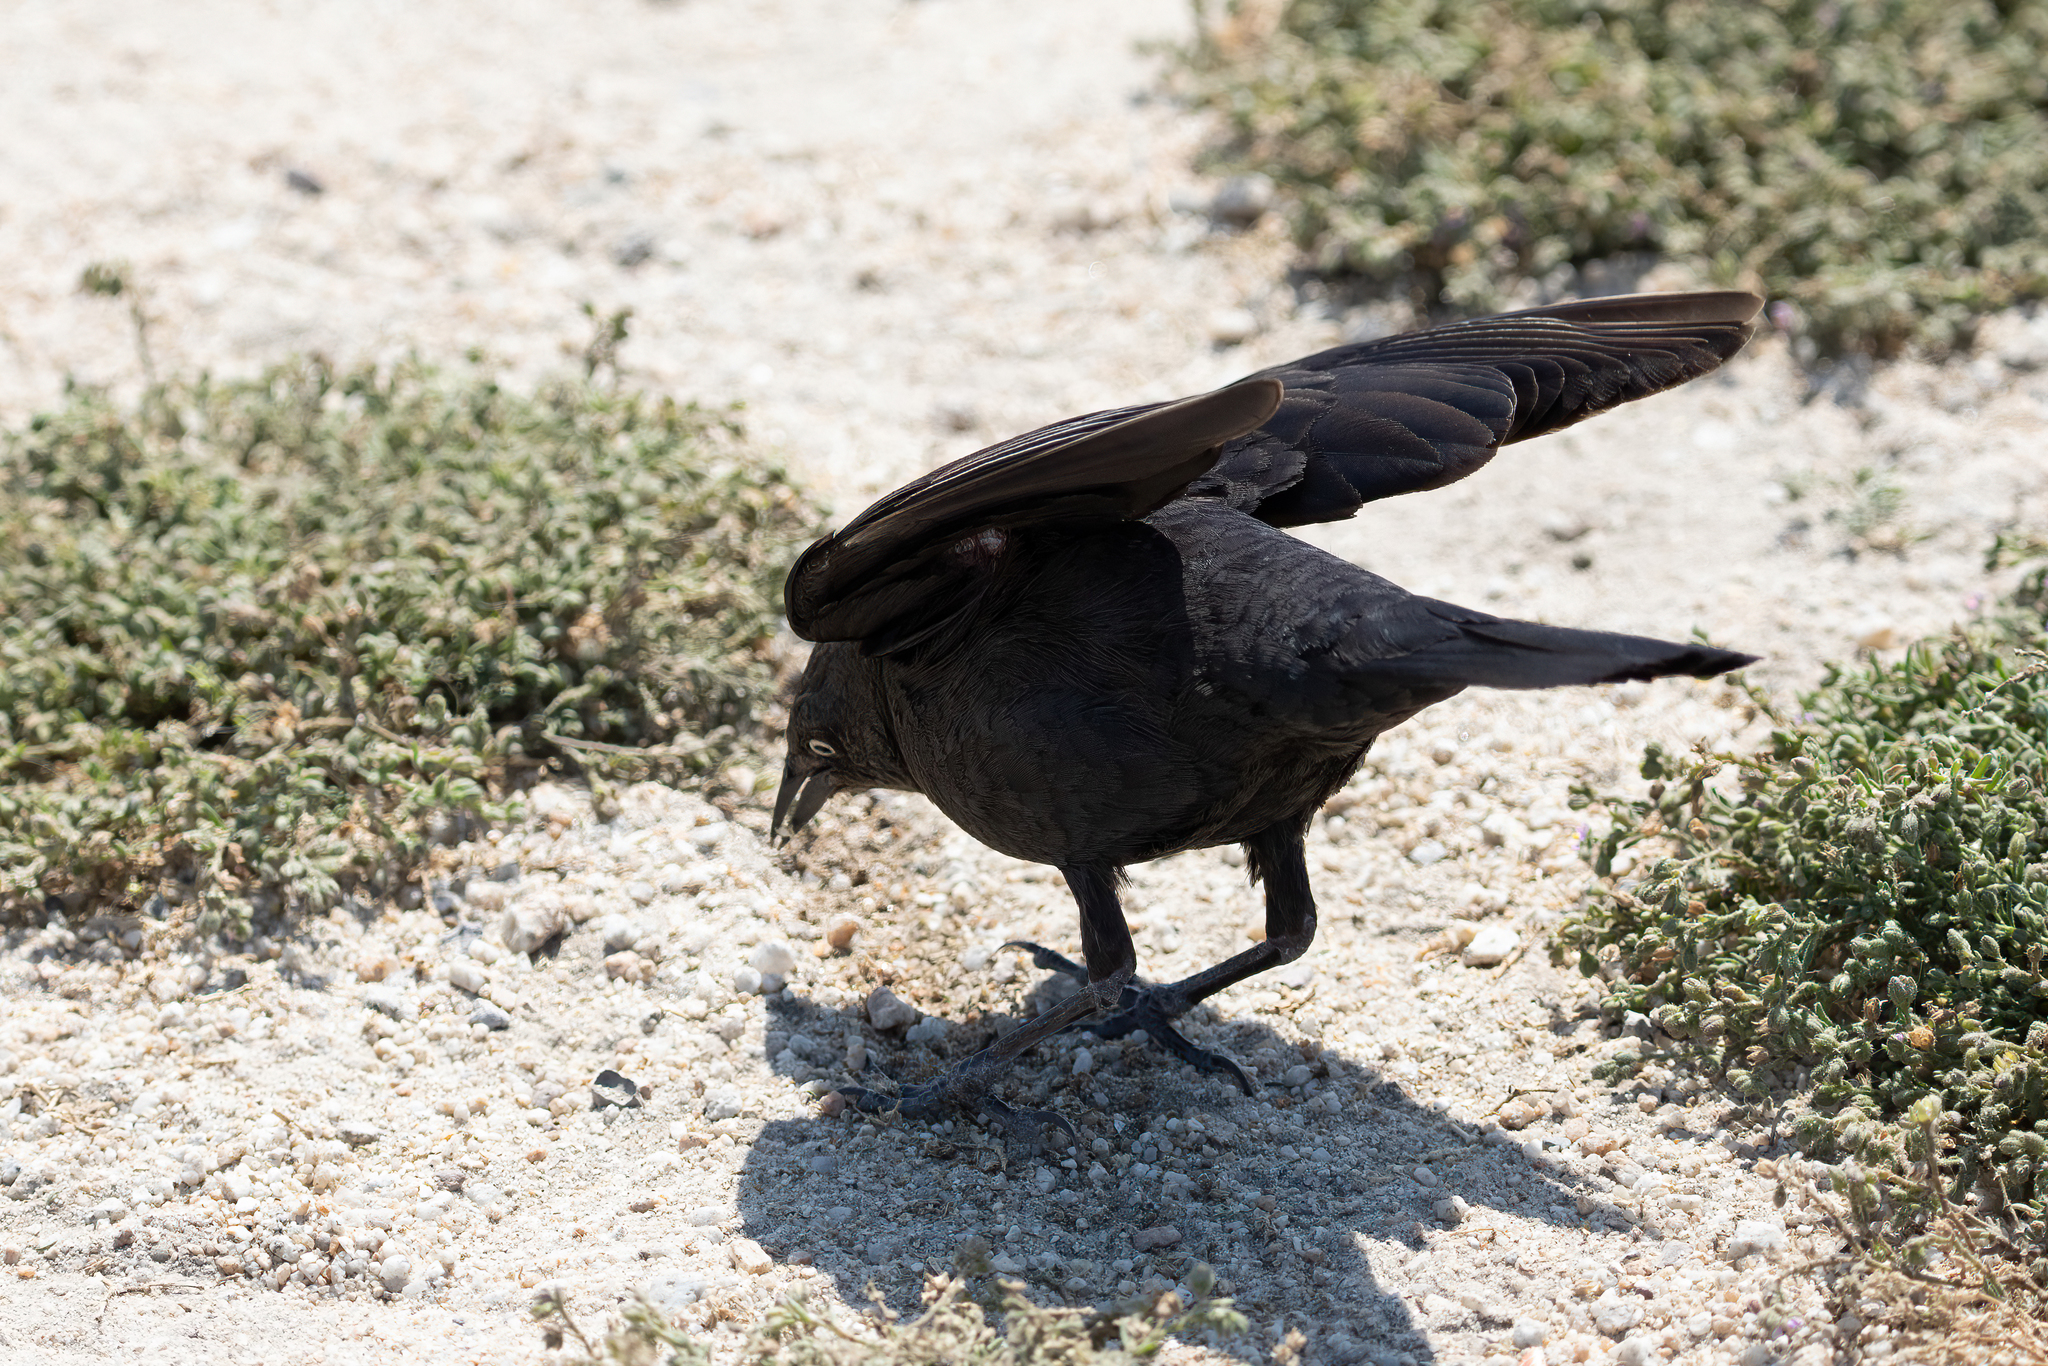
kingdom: Animalia
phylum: Chordata
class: Aves
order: Passeriformes
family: Icteridae
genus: Euphagus
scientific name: Euphagus cyanocephalus
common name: Brewer's blackbird
